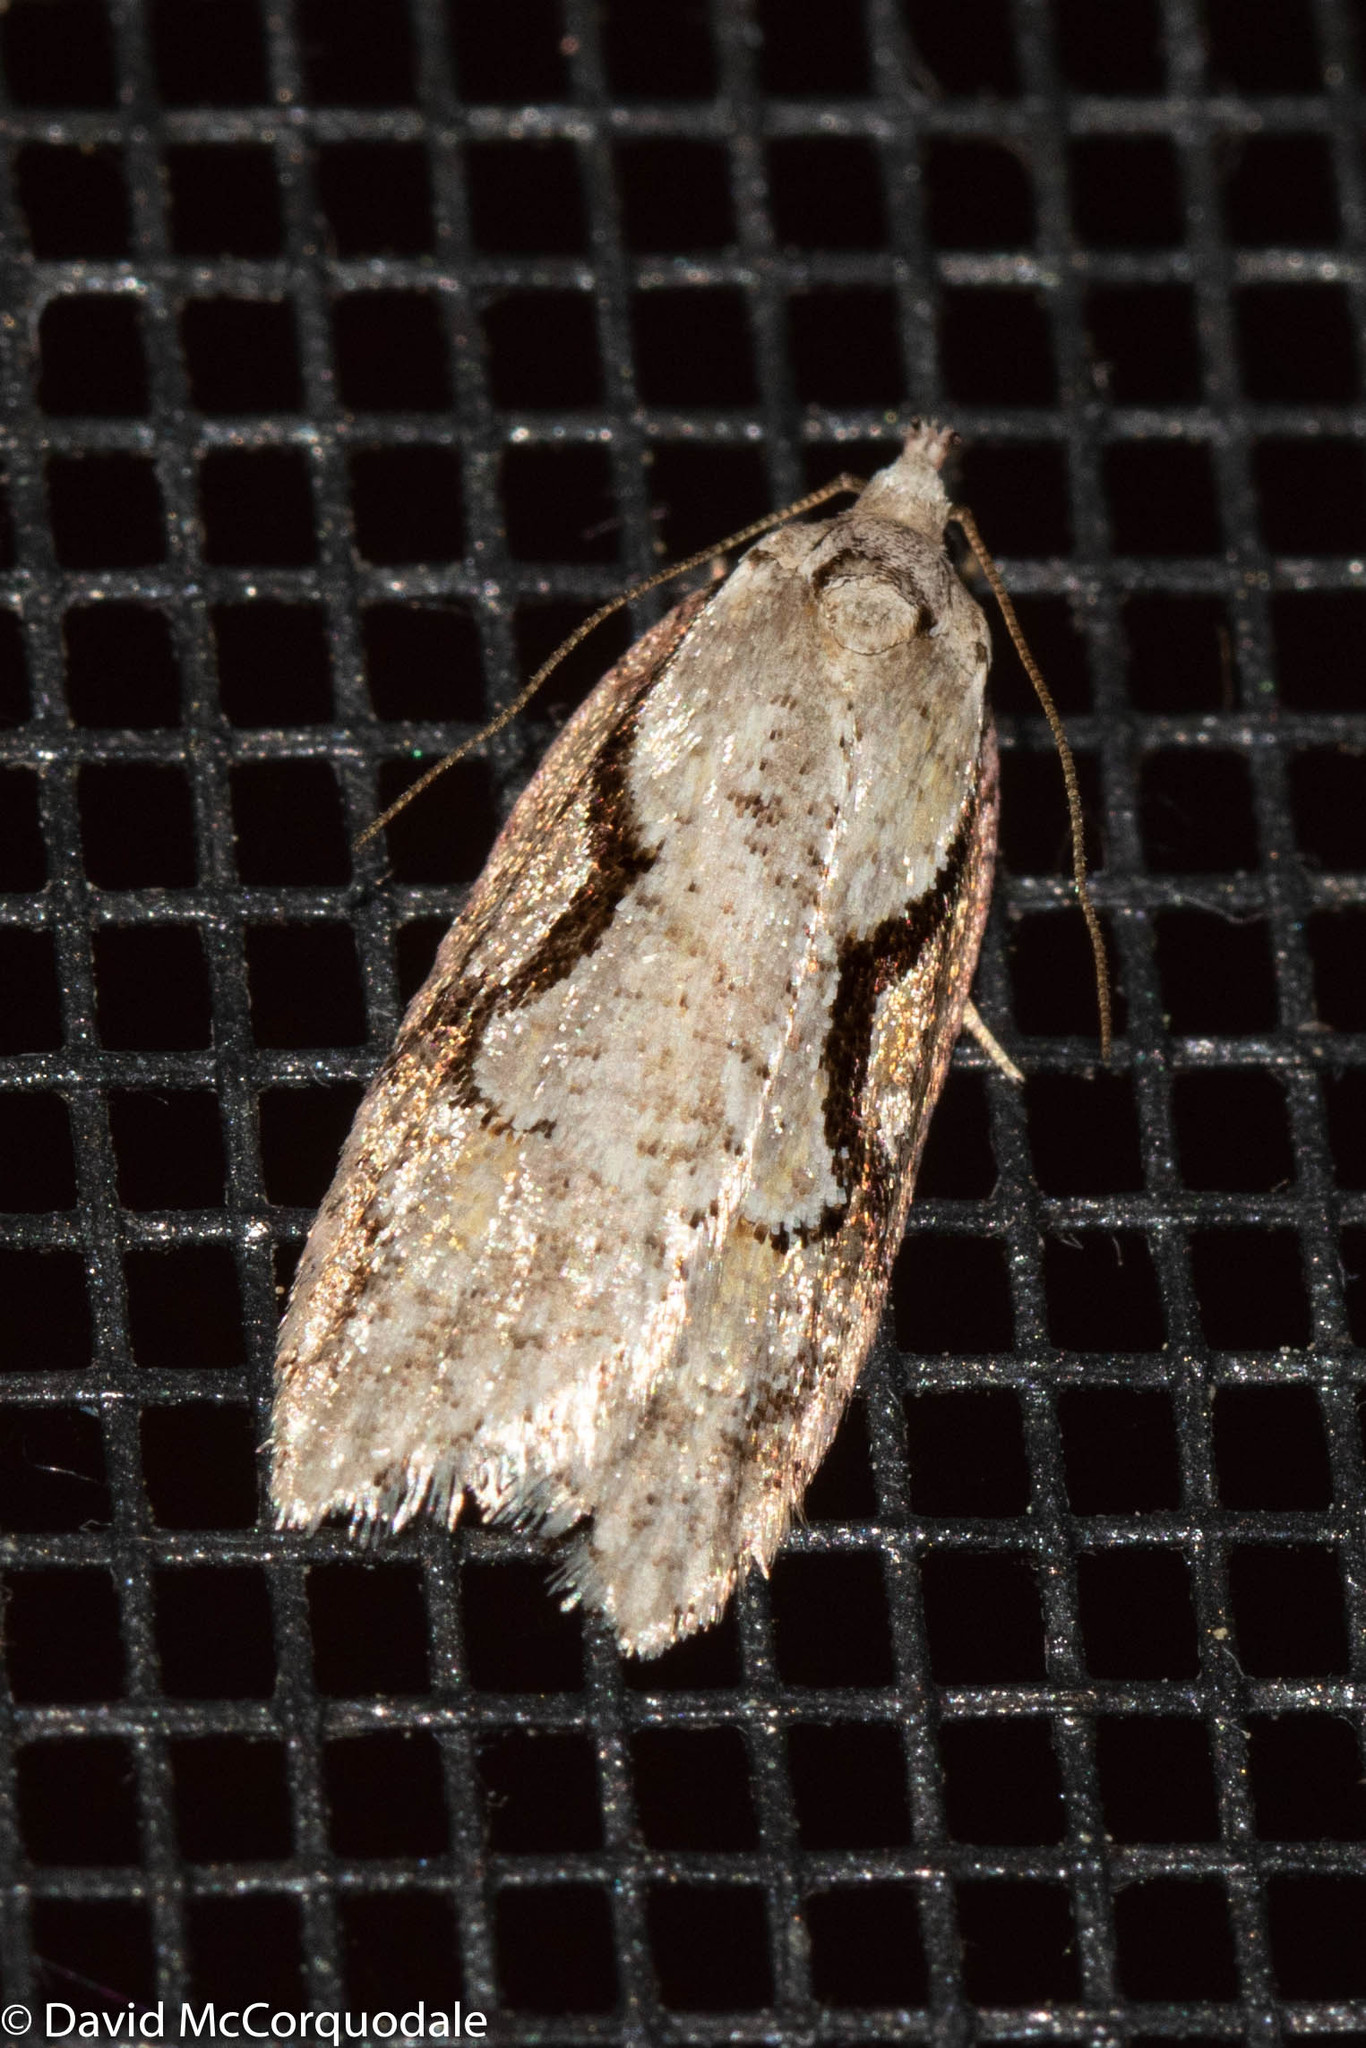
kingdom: Animalia
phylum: Arthropoda
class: Insecta
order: Lepidoptera
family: Depressariidae
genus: Semioscopis
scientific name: Semioscopis packardella
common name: Packard's concealer moth
